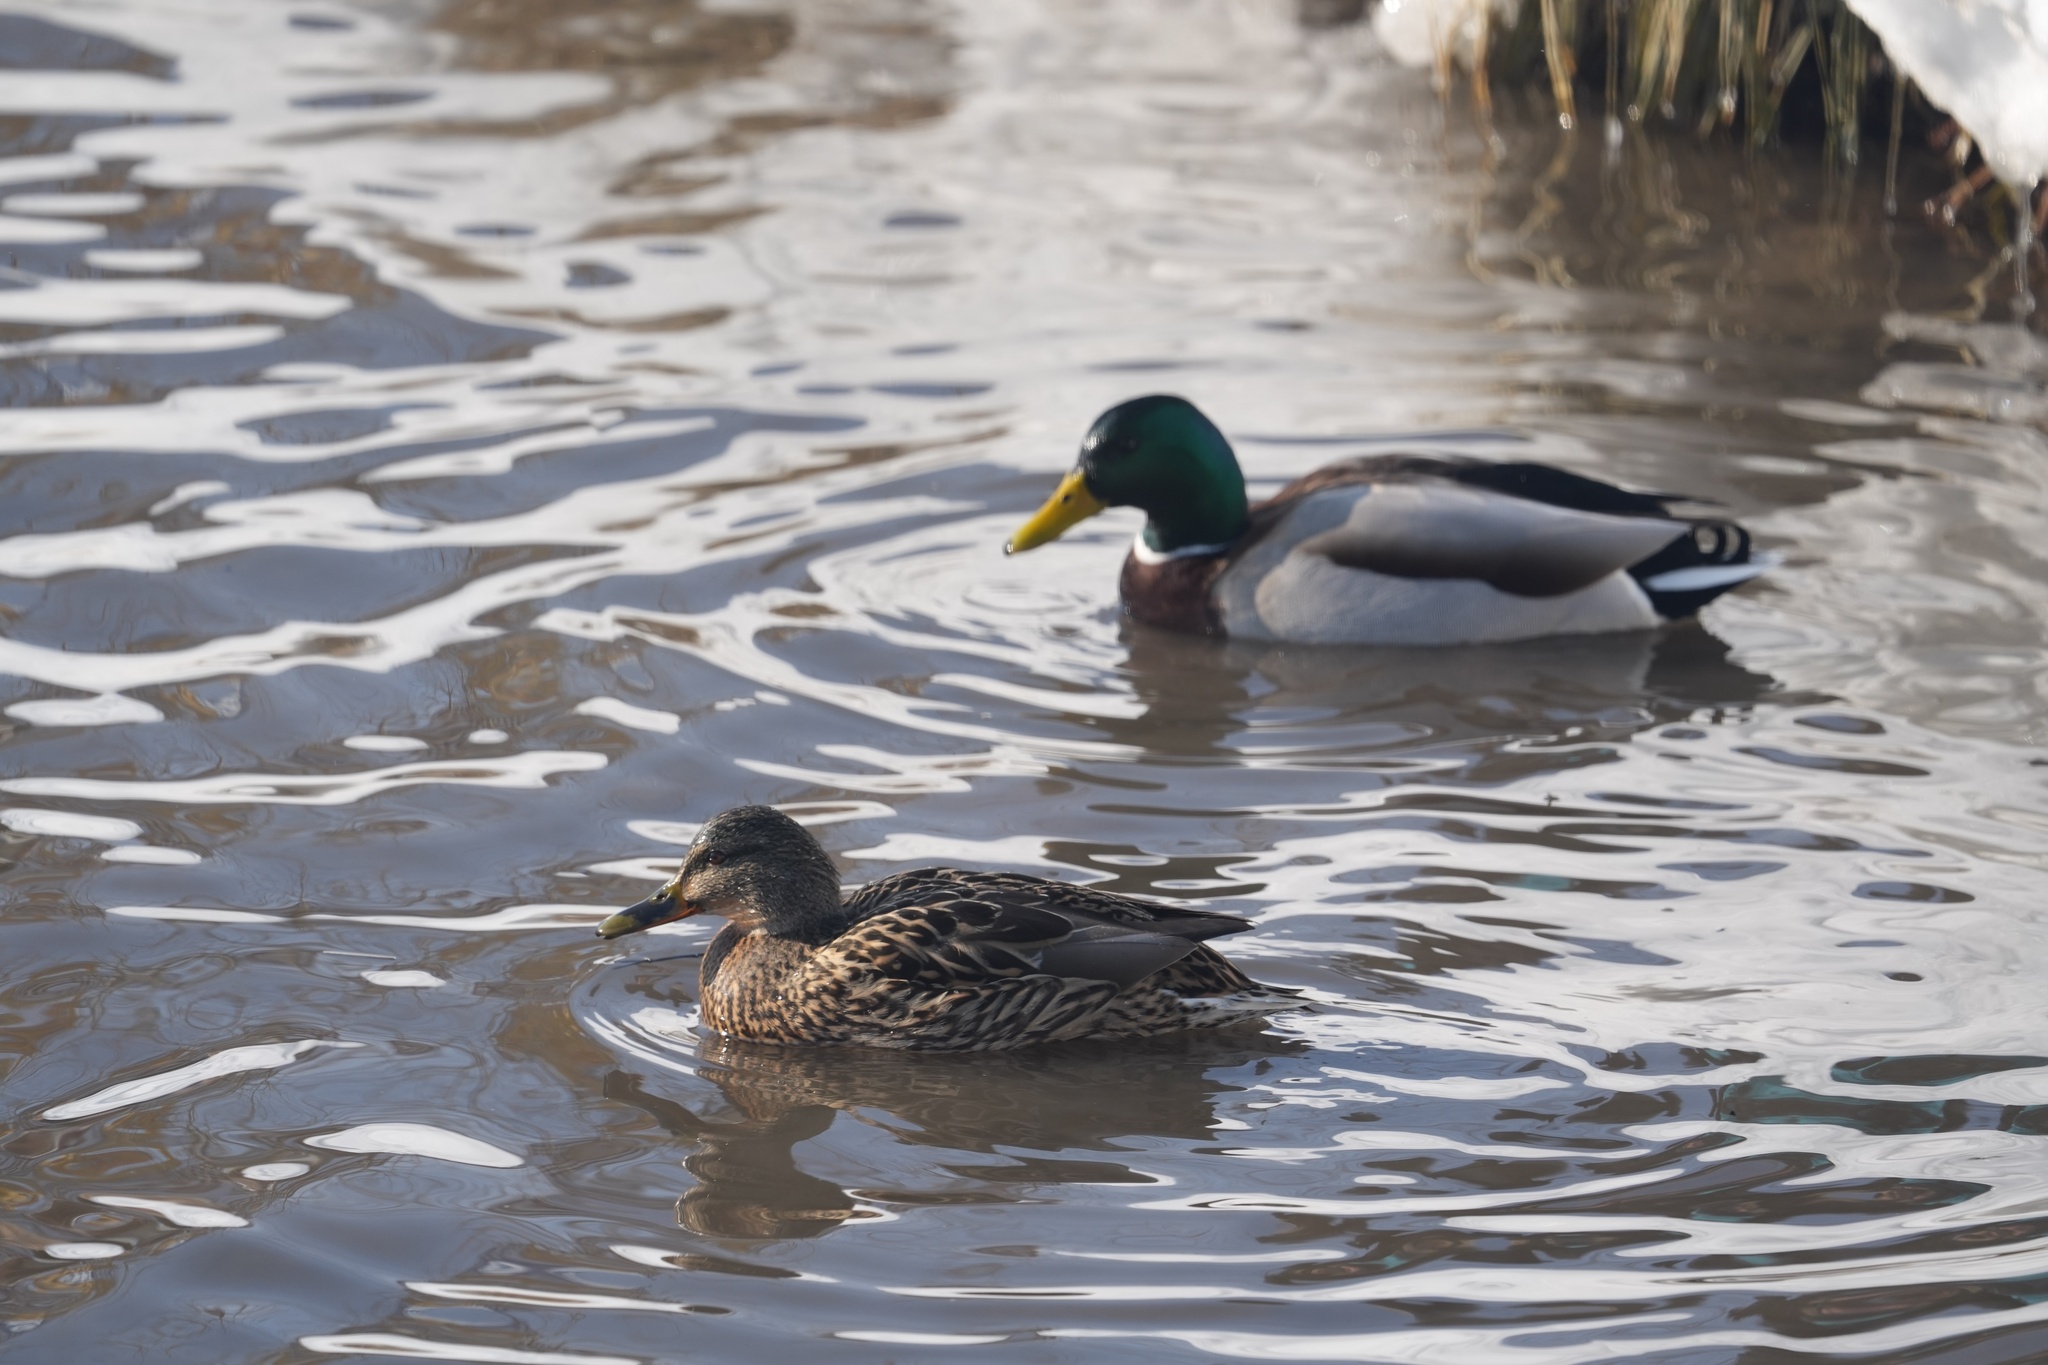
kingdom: Animalia
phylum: Chordata
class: Aves
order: Anseriformes
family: Anatidae
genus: Anas
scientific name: Anas platyrhynchos
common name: Mallard
